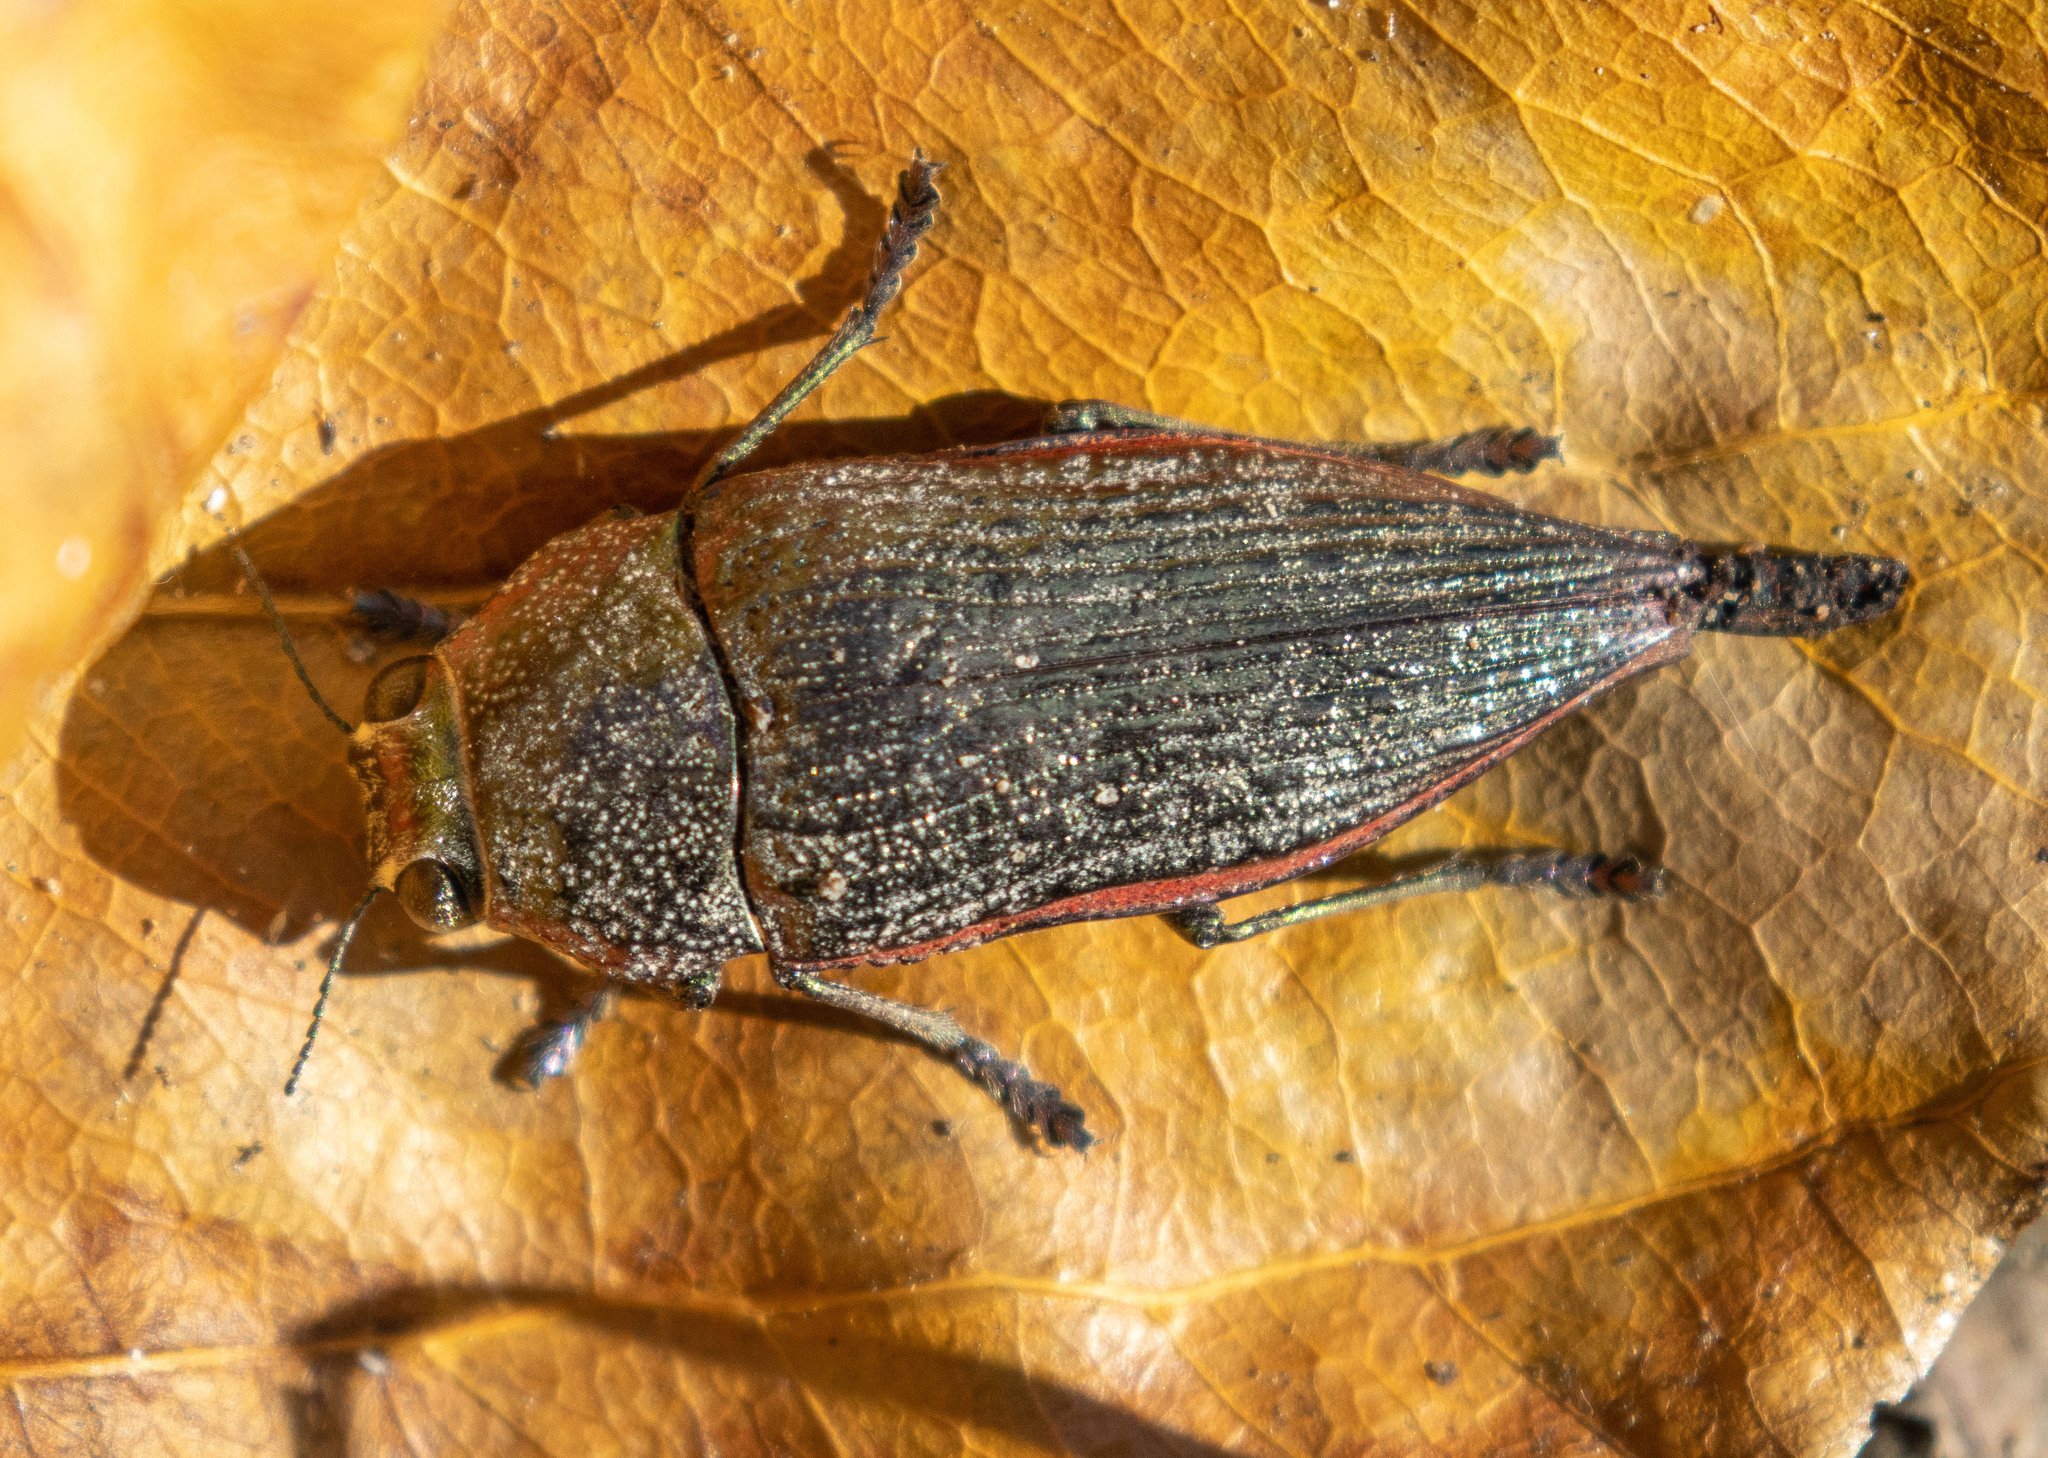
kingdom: Animalia
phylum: Arthropoda
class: Insecta
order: Coleoptera
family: Buprestidae
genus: Lampetis
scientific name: Lampetis roseocarinata
